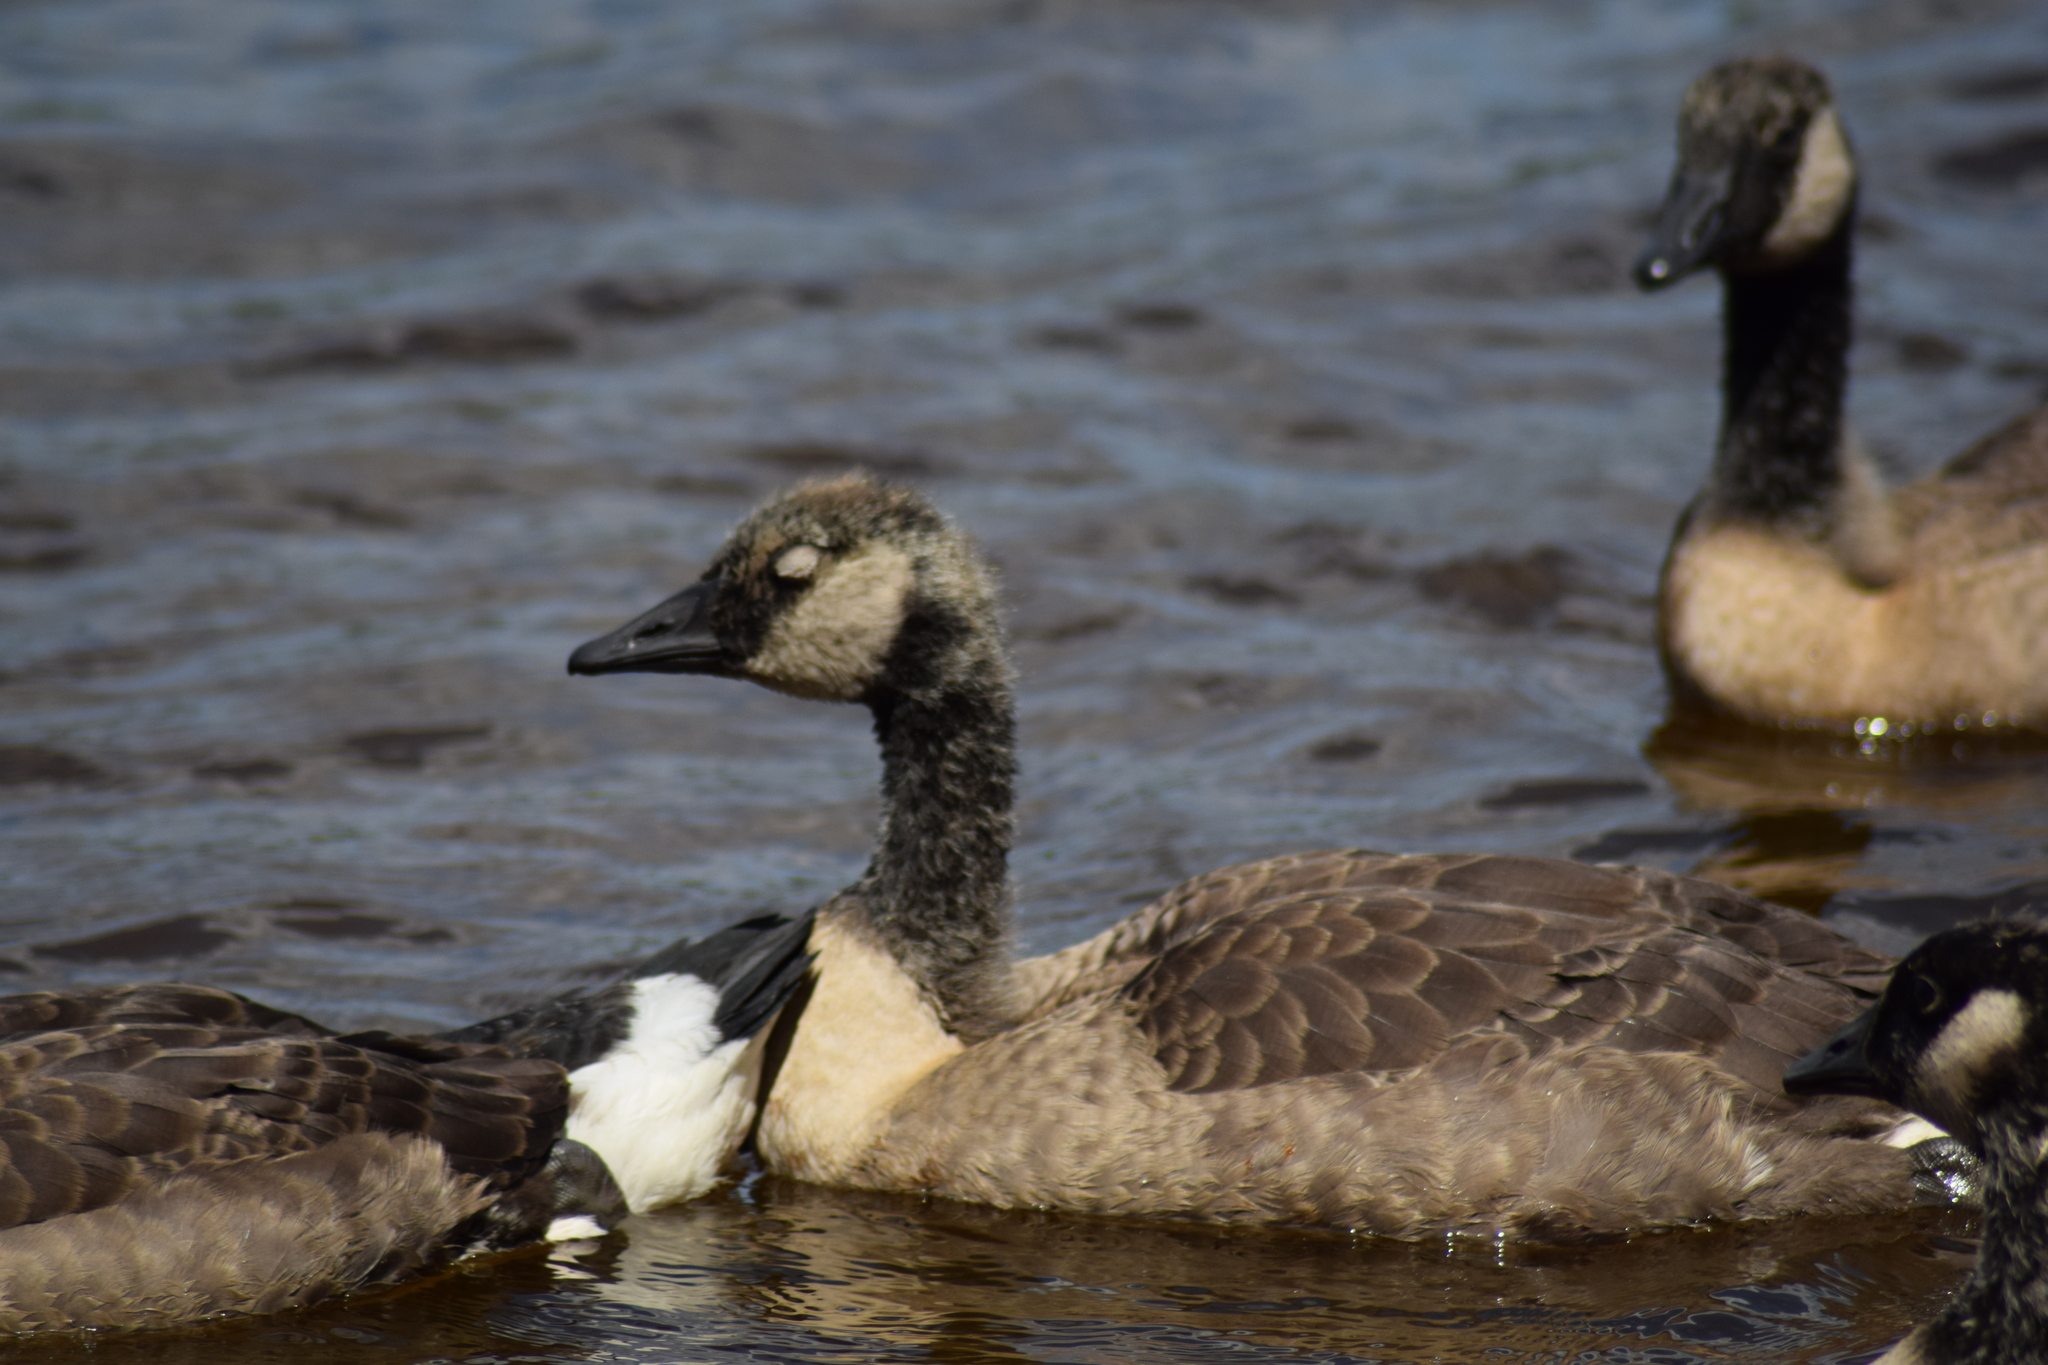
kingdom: Animalia
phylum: Chordata
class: Aves
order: Anseriformes
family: Anatidae
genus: Branta
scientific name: Branta canadensis
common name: Canada goose
